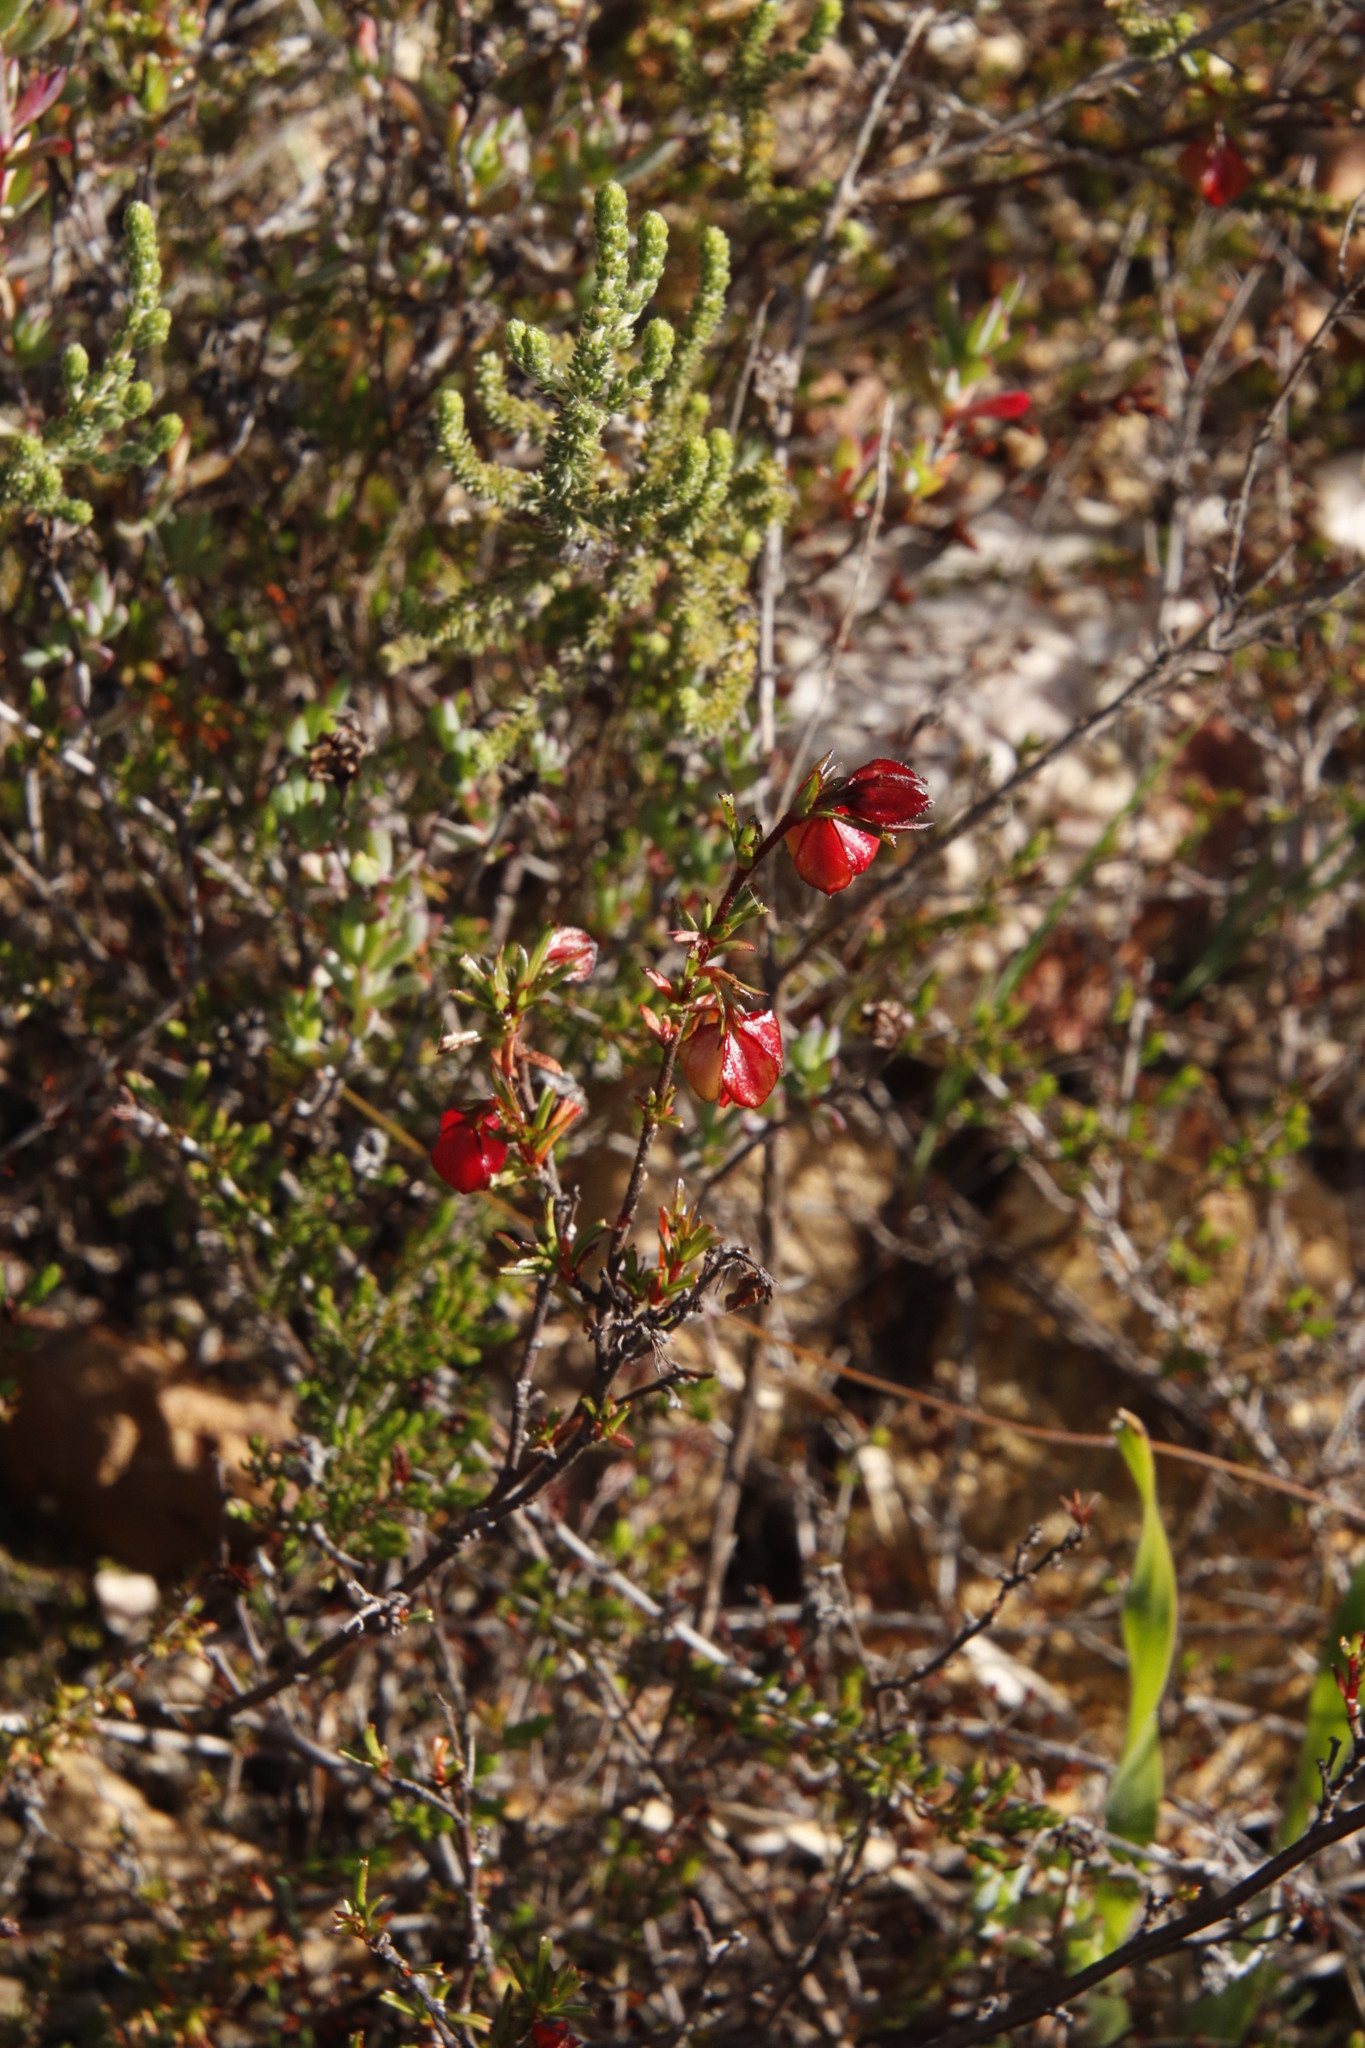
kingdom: Plantae
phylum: Tracheophyta
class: Magnoliopsida
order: Malvales
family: Malvaceae
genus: Hermannia
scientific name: Hermannia angularis
